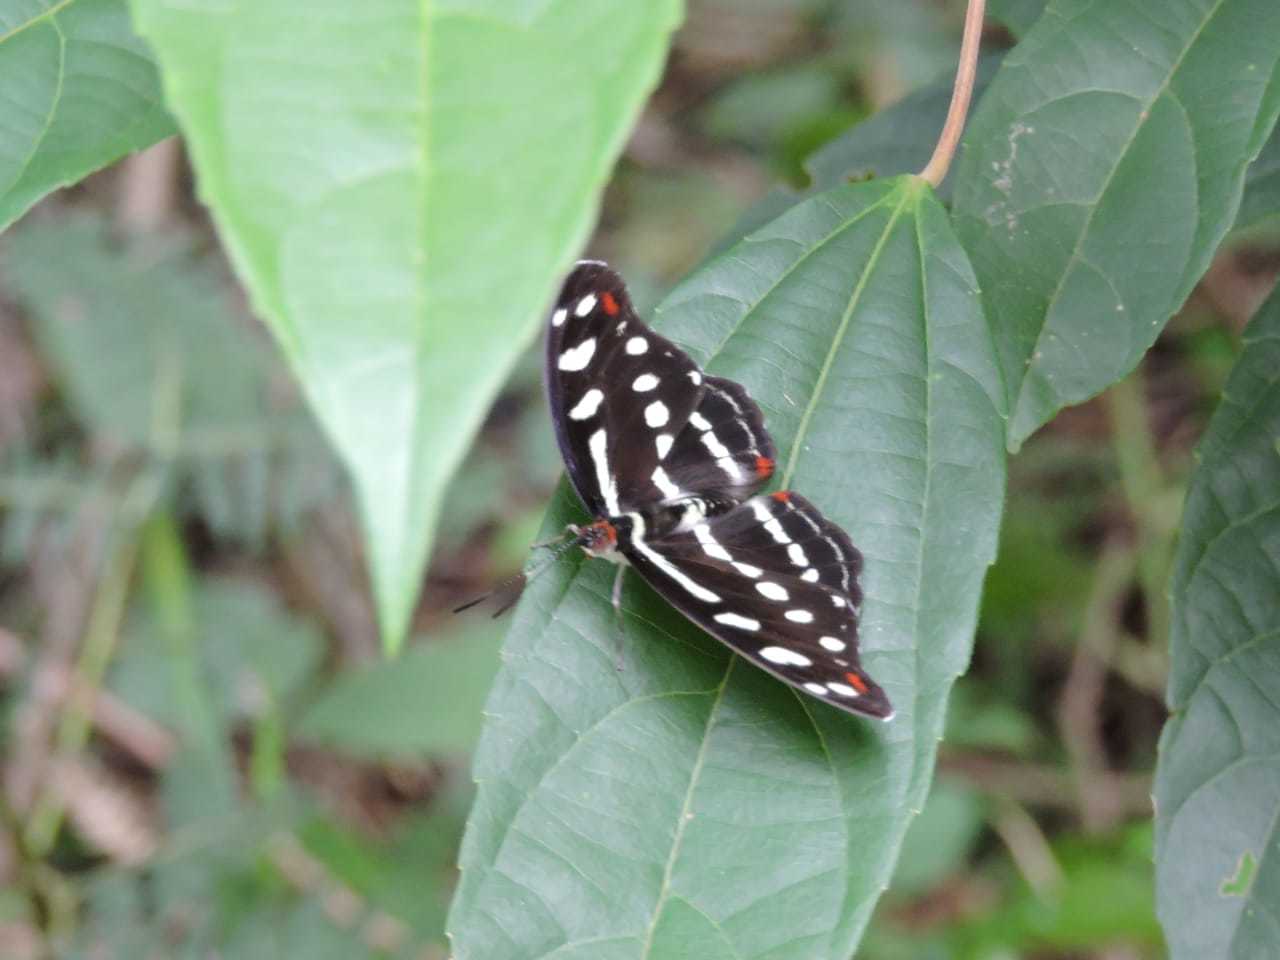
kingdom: Animalia
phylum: Arthropoda
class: Insecta
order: Lepidoptera
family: Nymphalidae
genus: Catonephele
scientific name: Catonephele acontius
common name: Unspotted firewing
